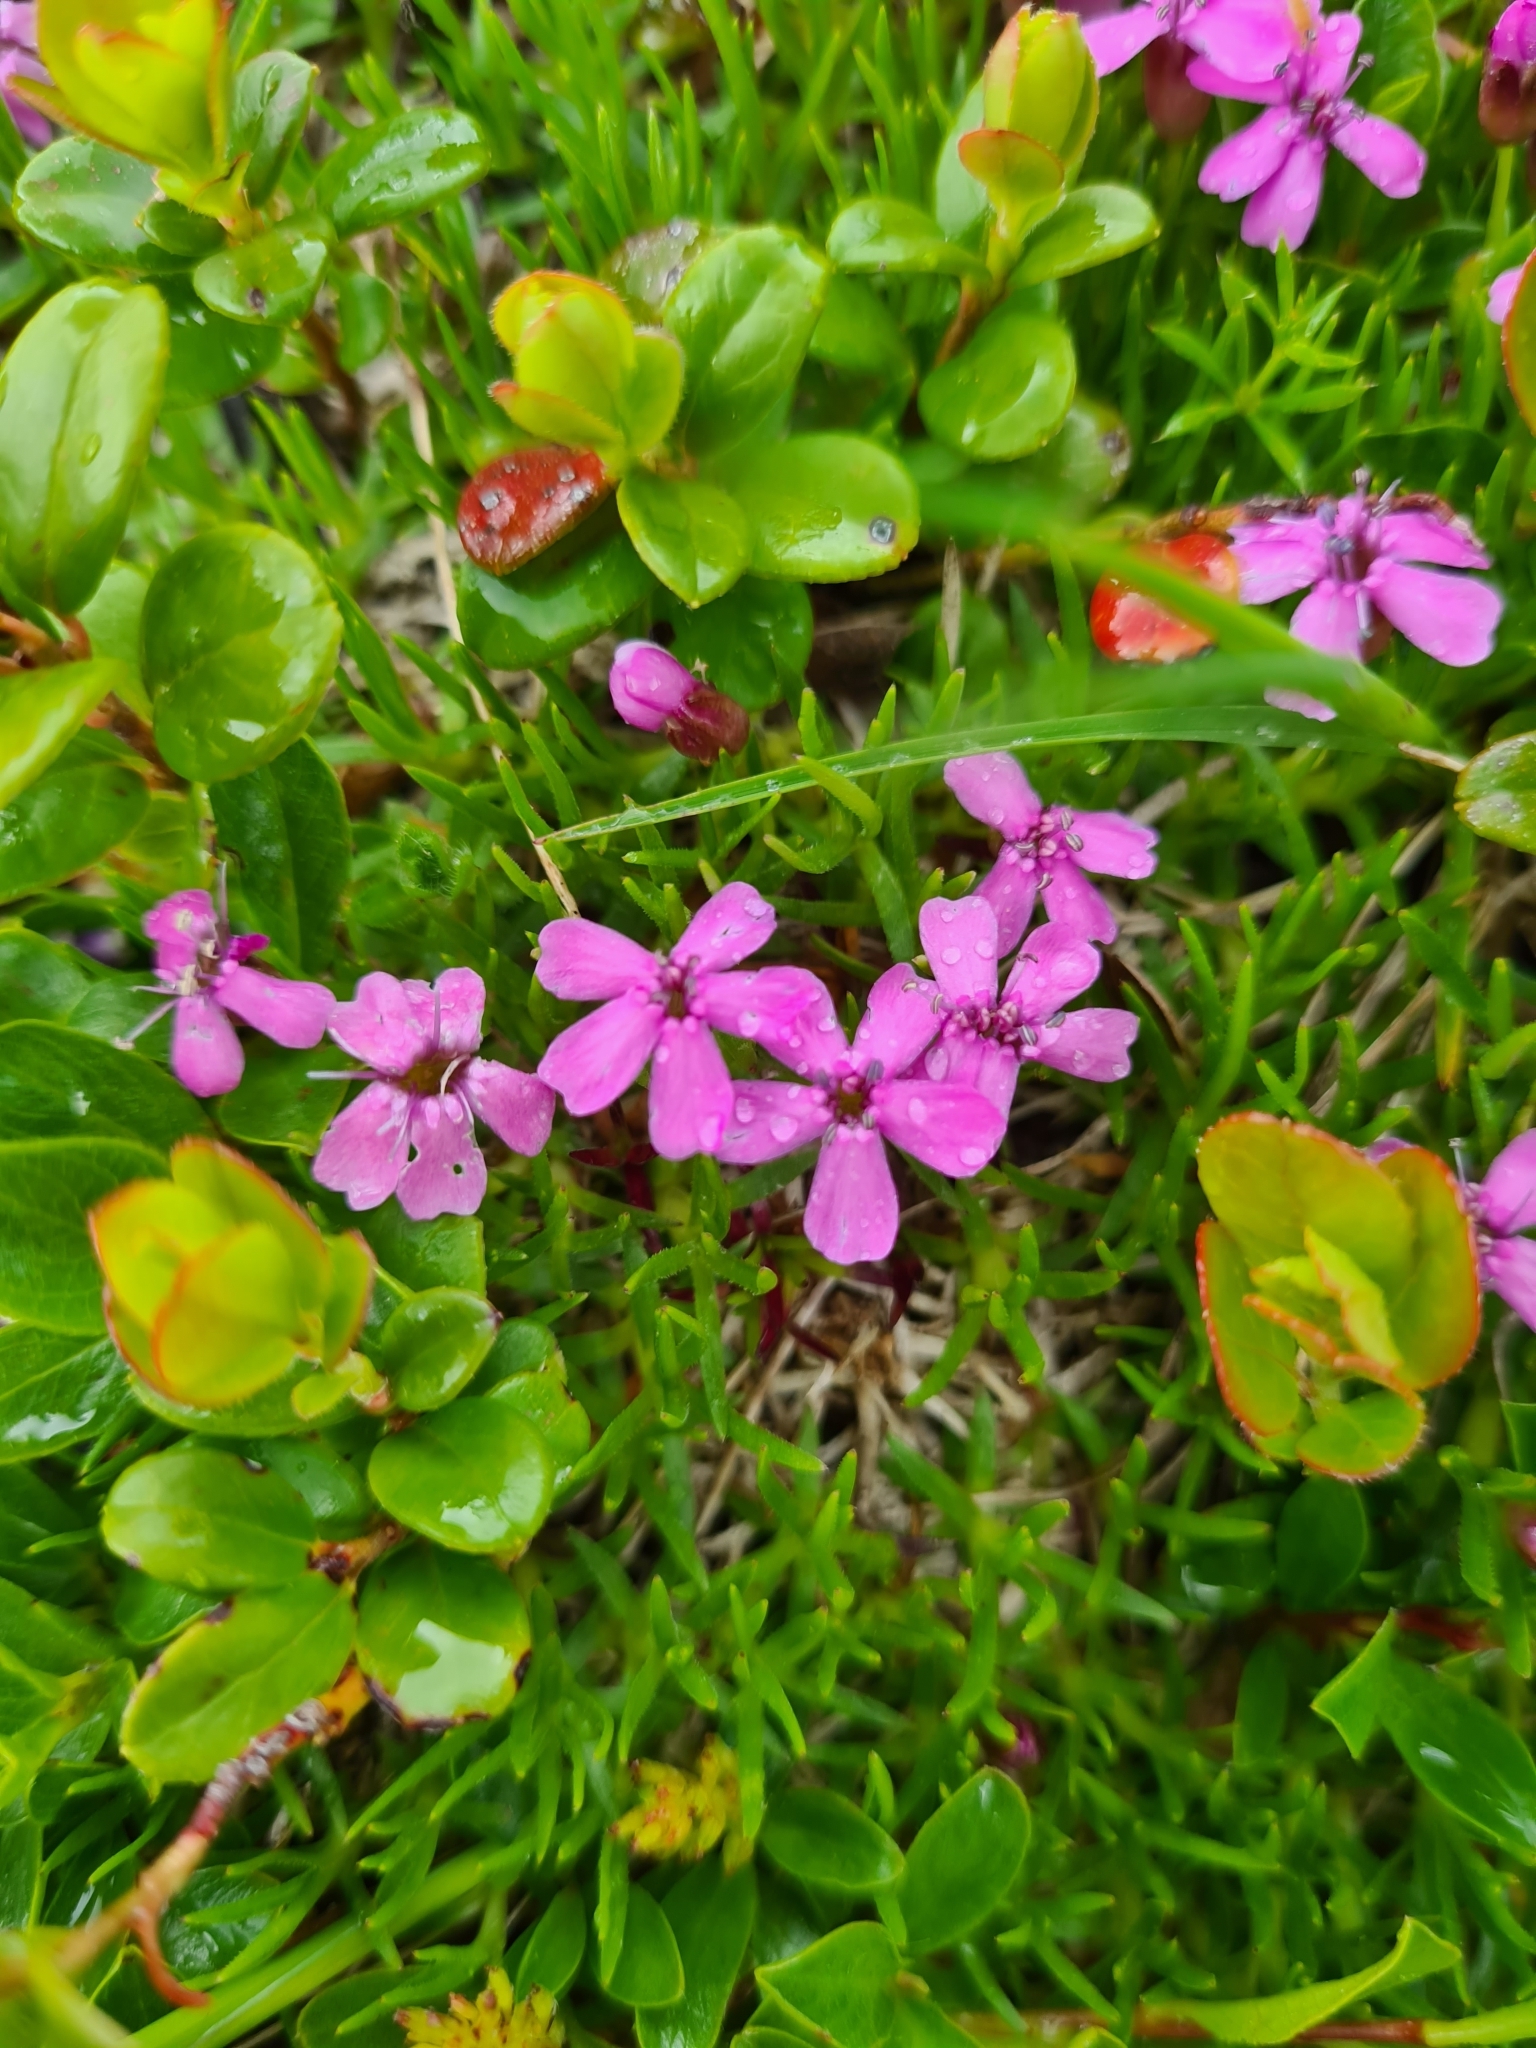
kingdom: Plantae
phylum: Tracheophyta
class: Magnoliopsida
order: Caryophyllales
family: Caryophyllaceae
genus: Silene
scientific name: Silene acaulis
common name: Moss campion
